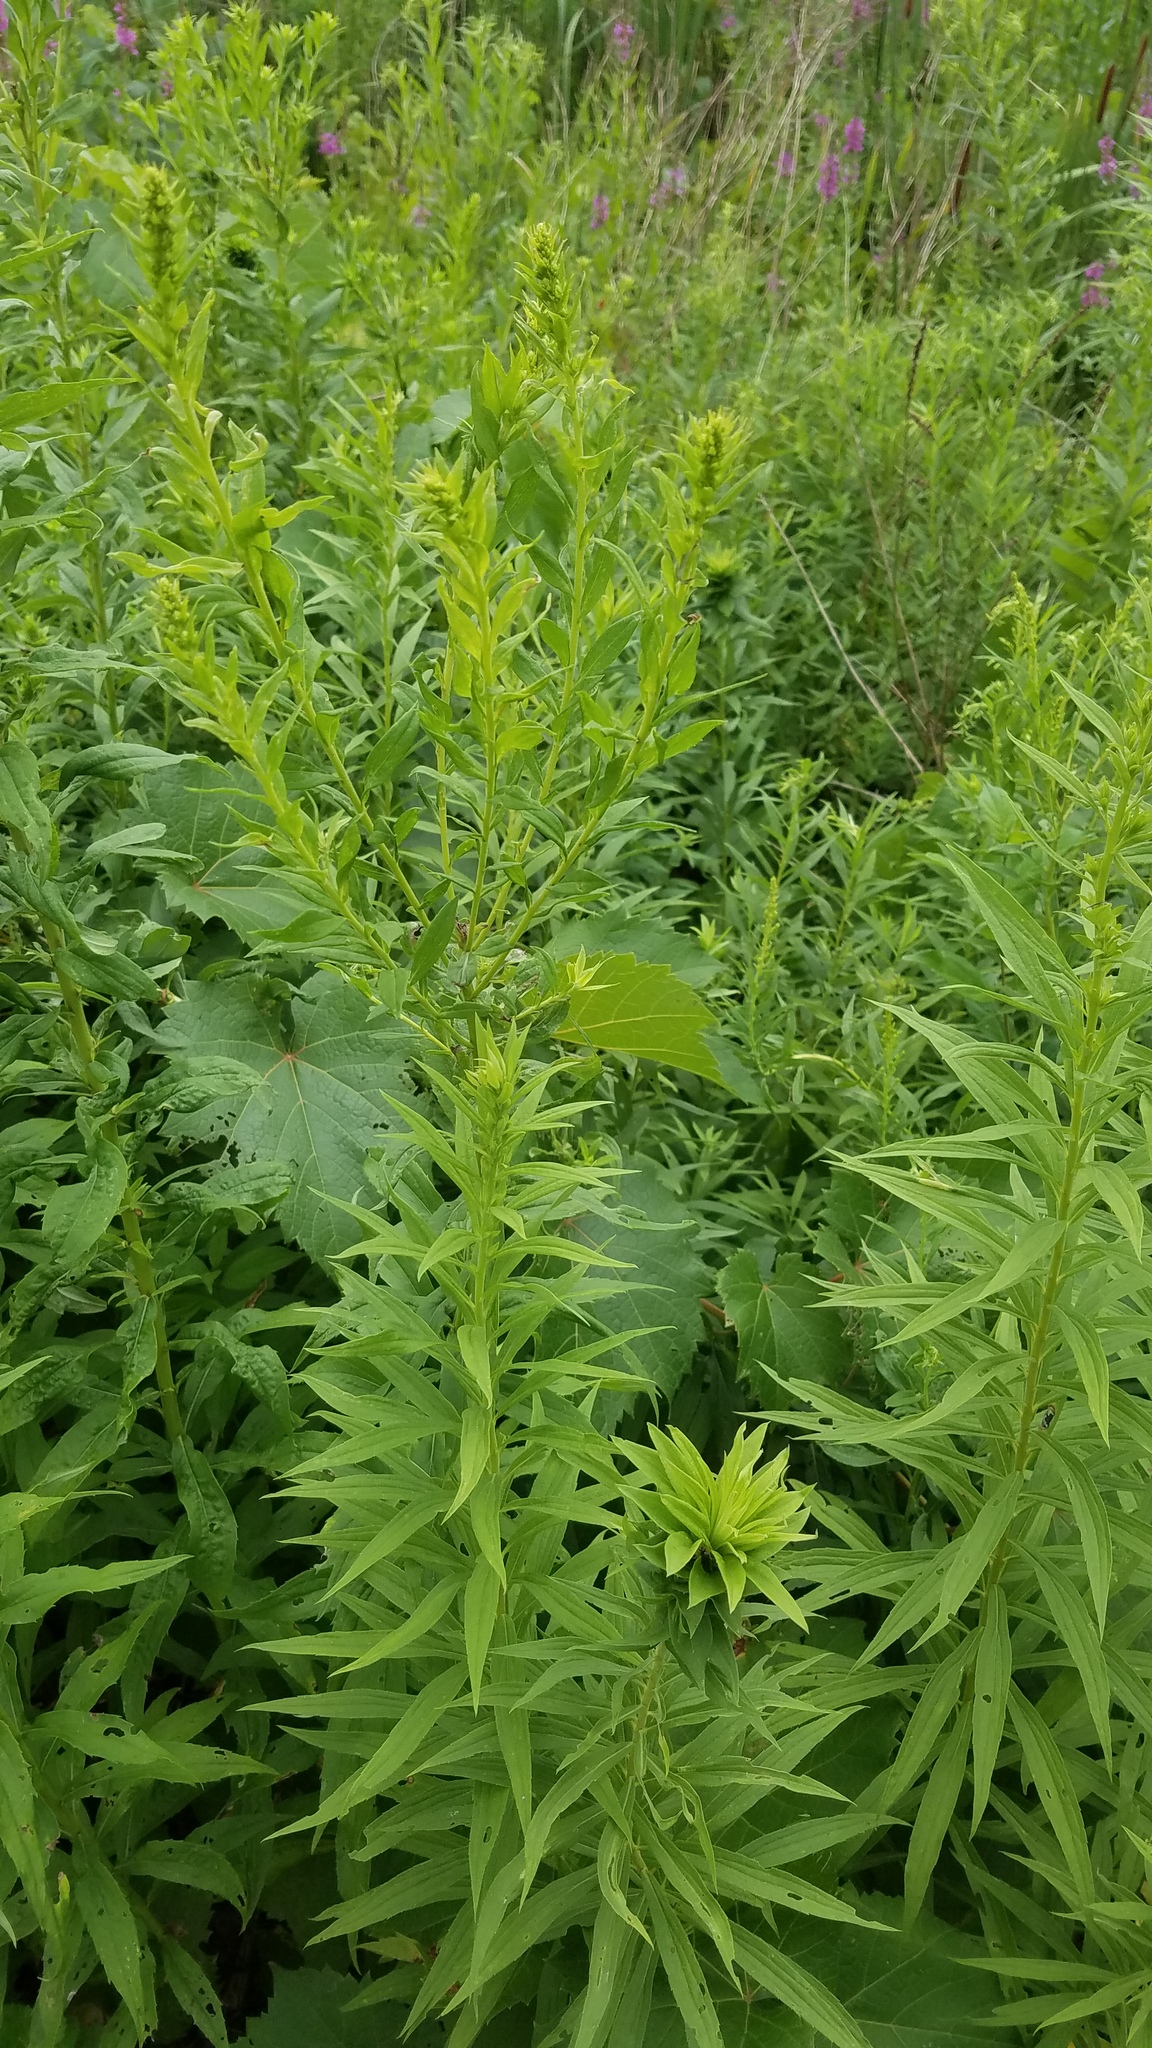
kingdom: Plantae
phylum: Tracheophyta
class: Magnoliopsida
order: Asterales
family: Asteraceae
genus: Solidago
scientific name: Solidago altissima
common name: Late goldenrod
